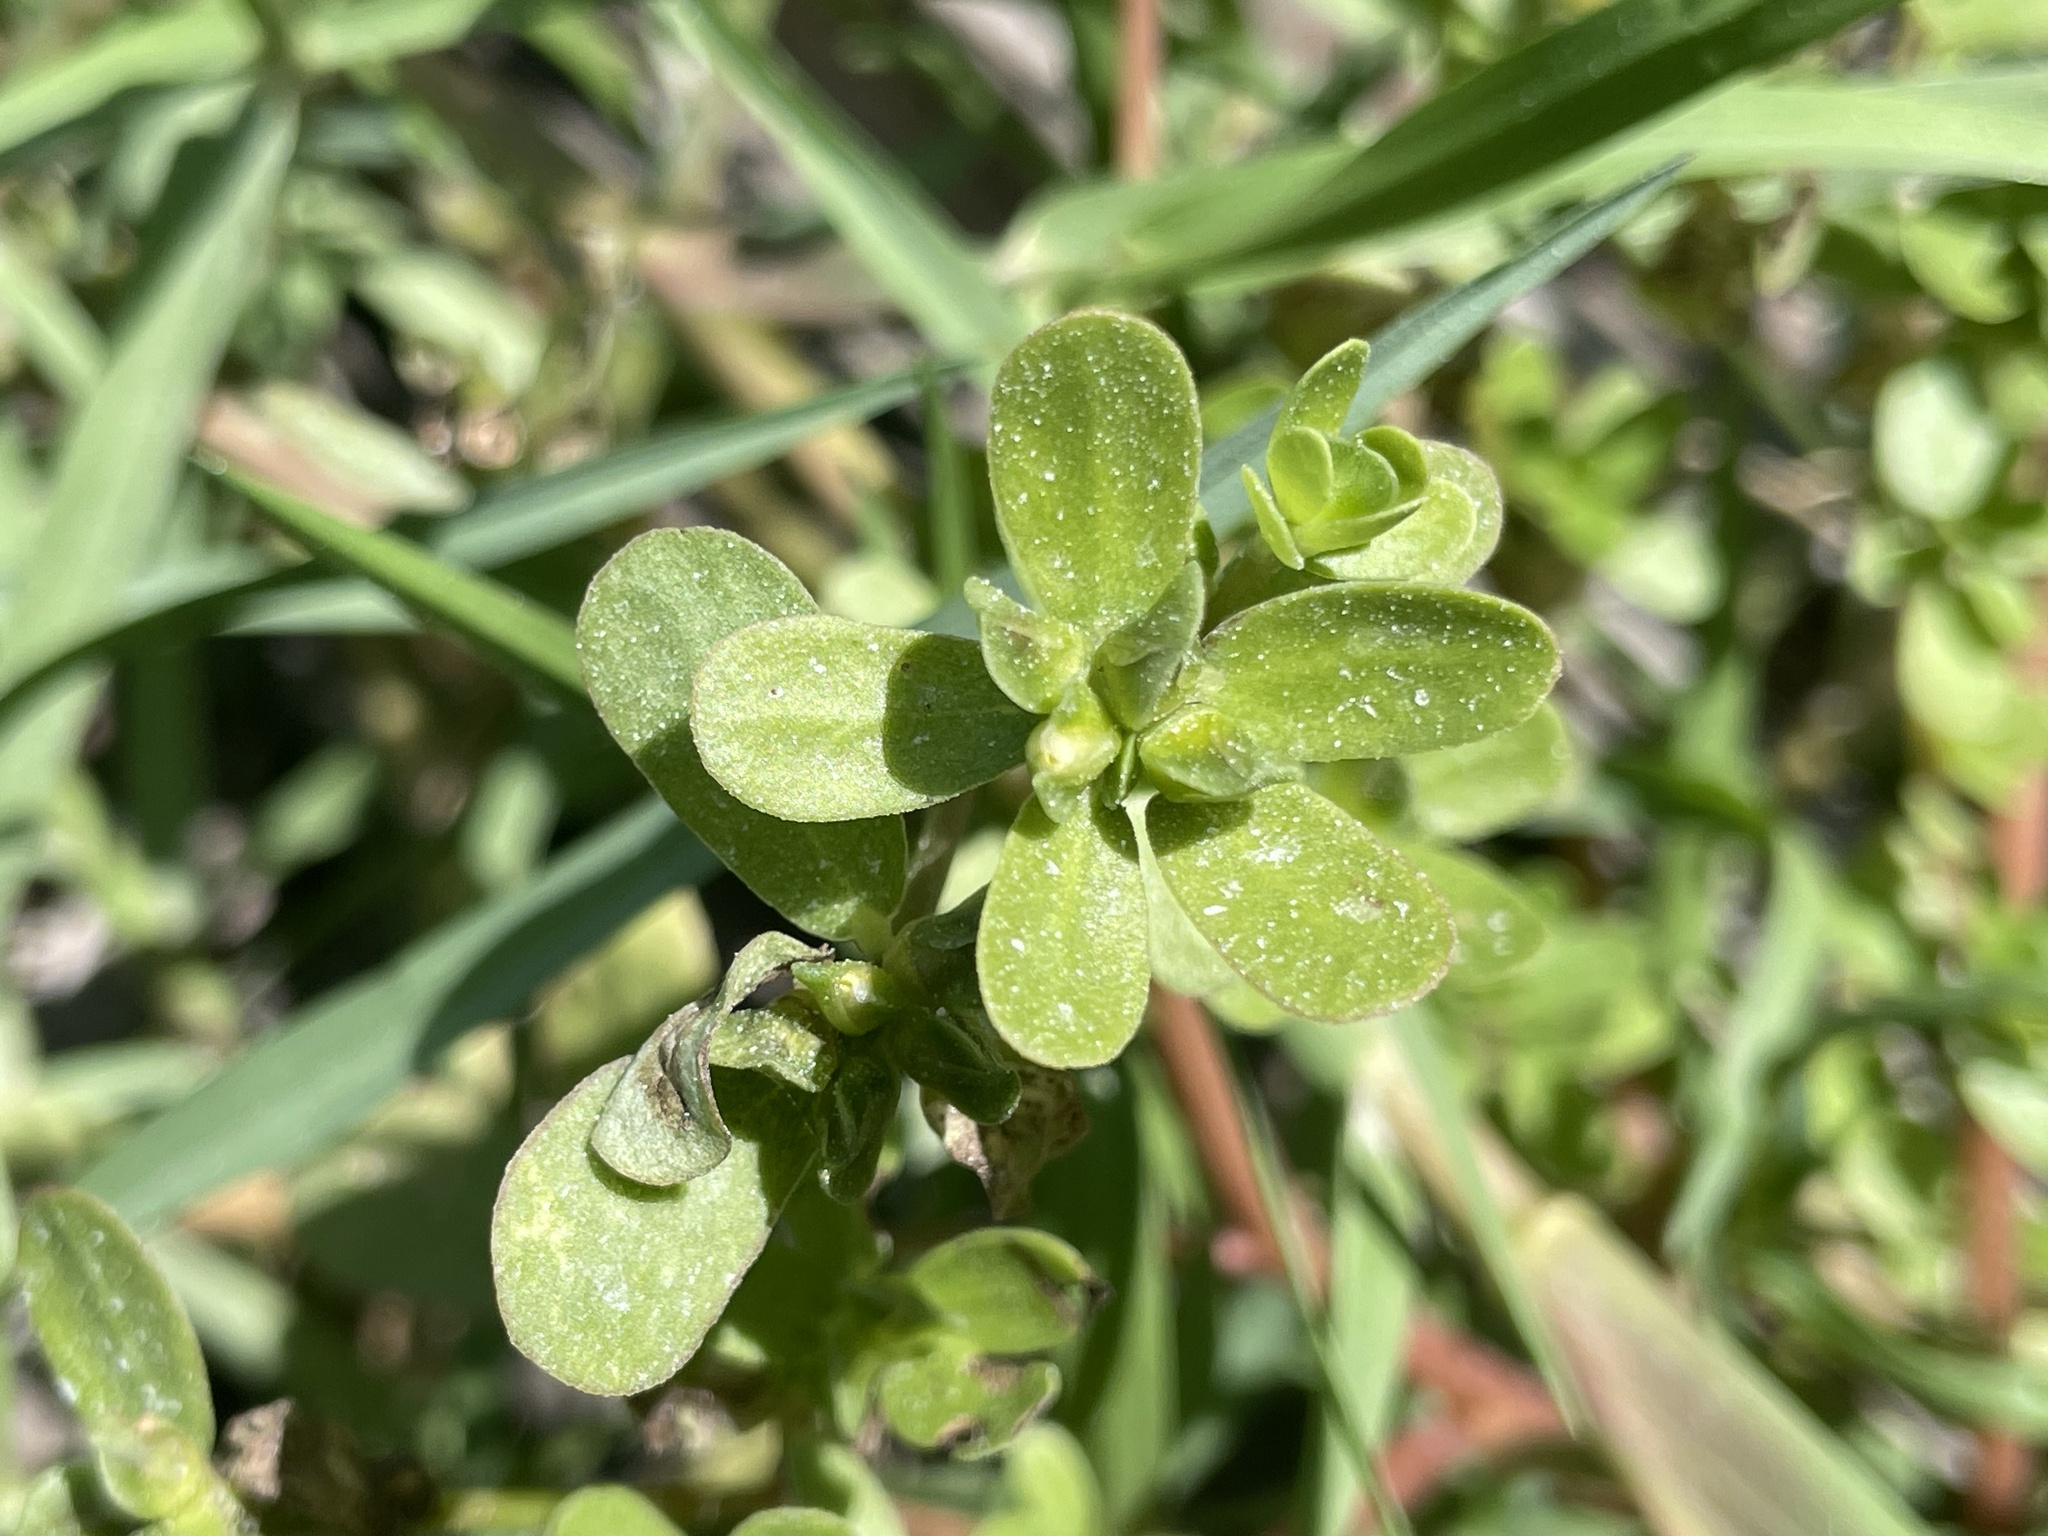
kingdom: Plantae
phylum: Tracheophyta
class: Magnoliopsida
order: Caryophyllales
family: Portulacaceae
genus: Portulaca
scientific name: Portulaca oleracea
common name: Common purslane
